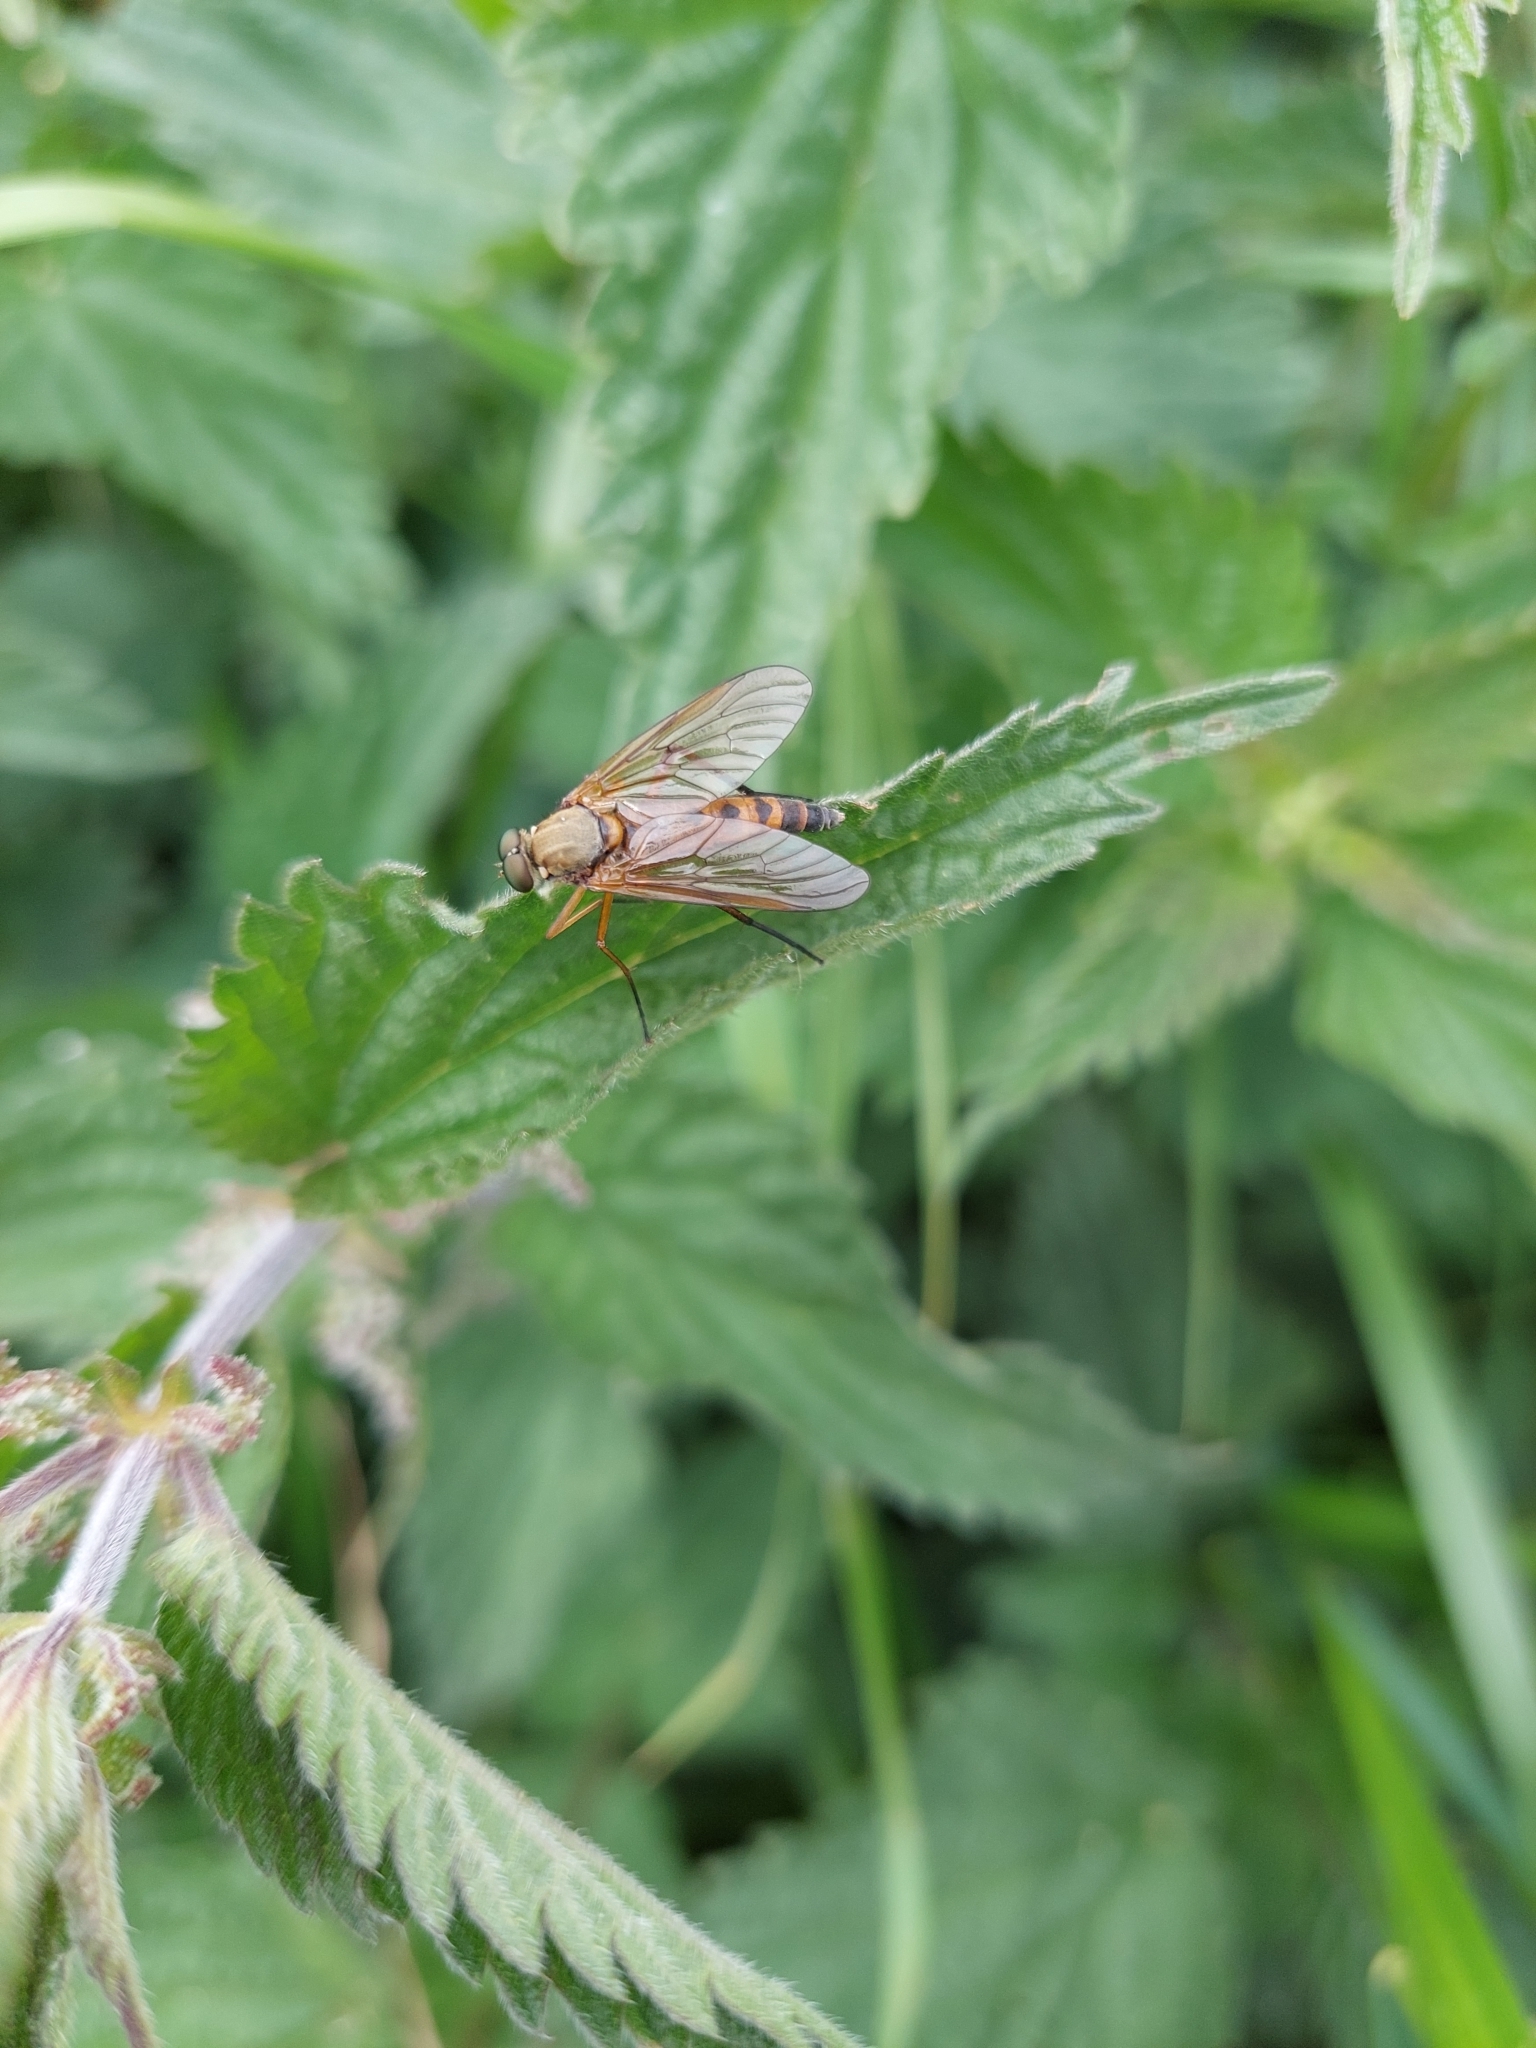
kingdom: Animalia
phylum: Arthropoda
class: Insecta
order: Diptera
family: Rhagionidae
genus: Rhagio
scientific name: Rhagio tringaria
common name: Marsh snipefly
